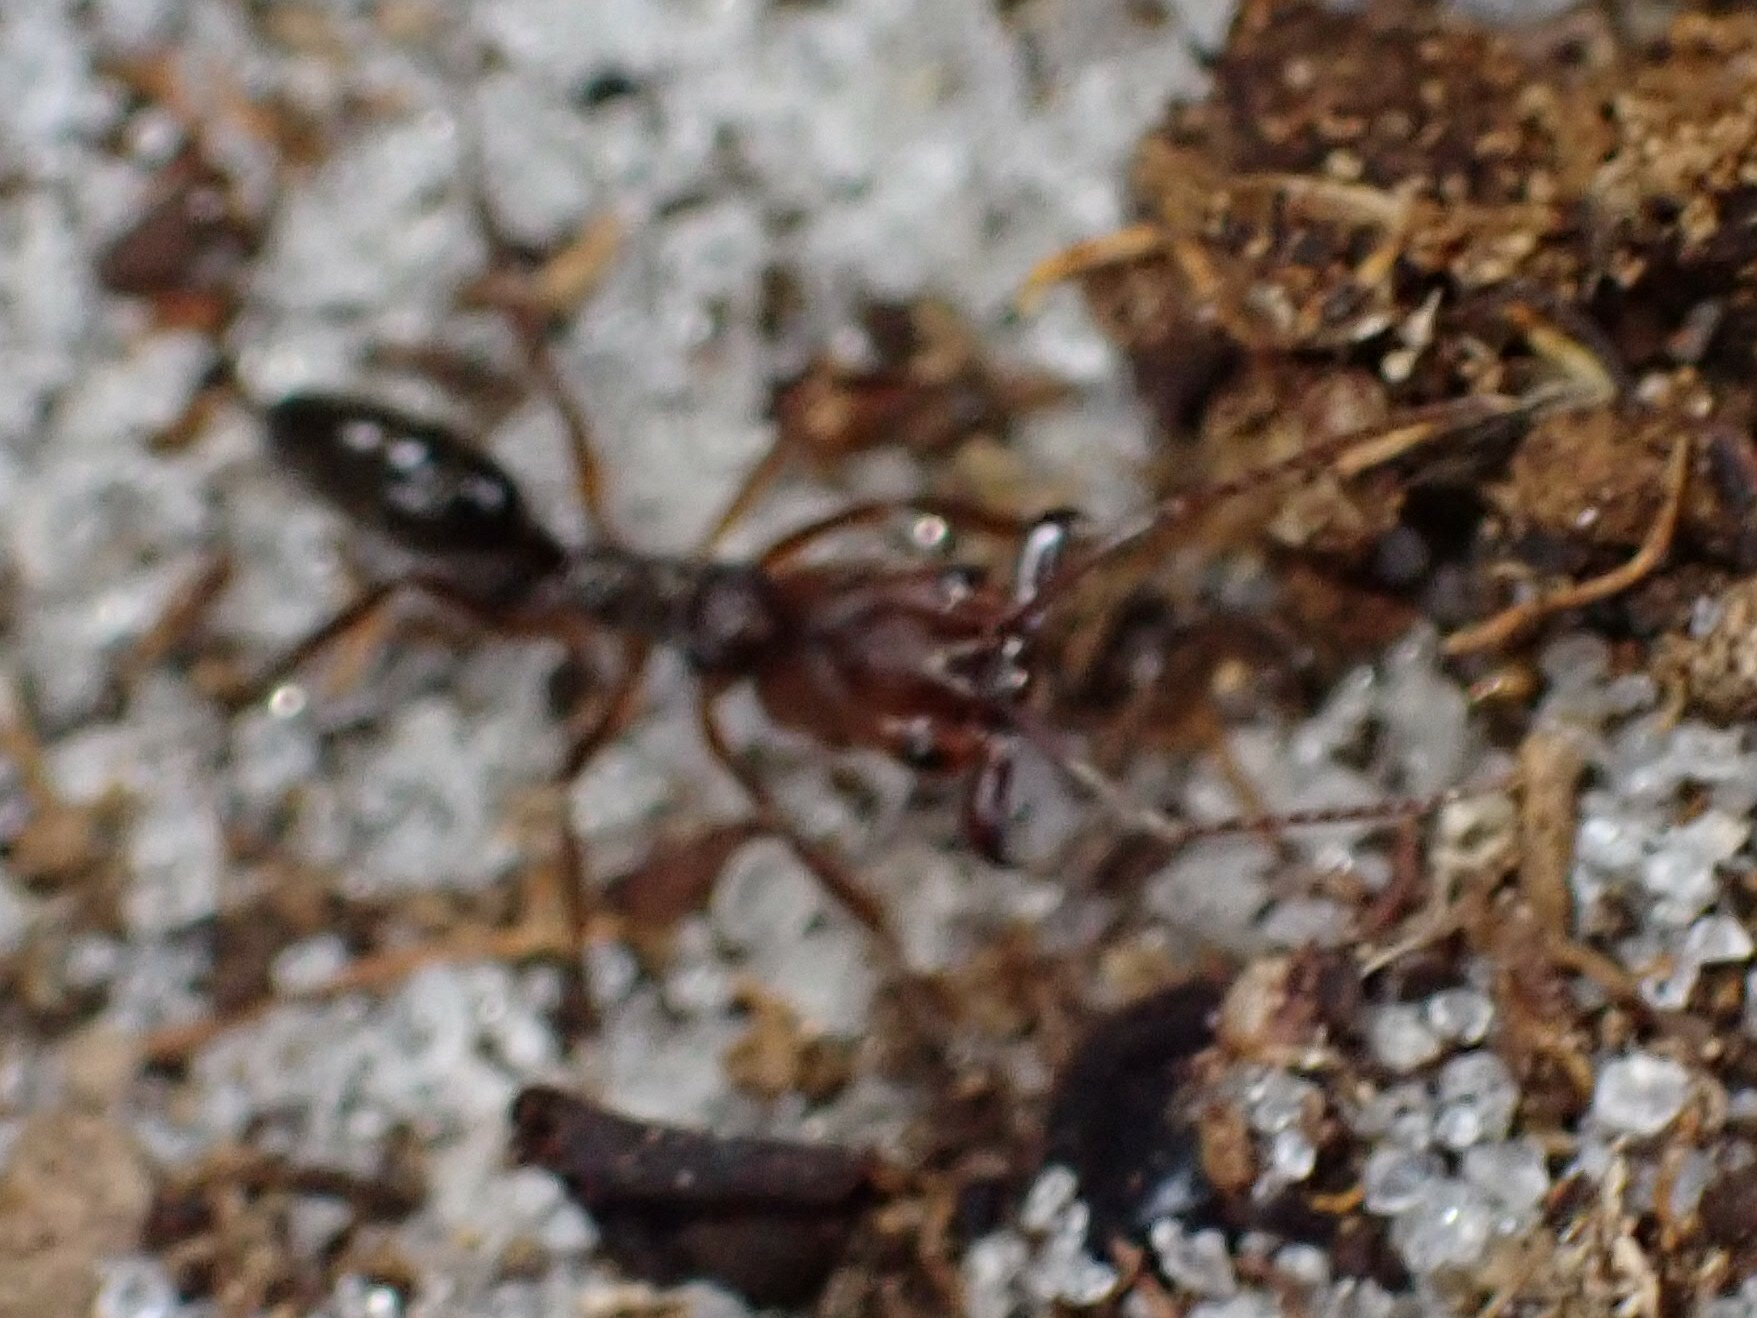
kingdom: Animalia
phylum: Arthropoda
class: Insecta
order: Hymenoptera
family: Formicidae
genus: Odontomachus
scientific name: Odontomachus ruginodis
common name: Trapjaw ant
